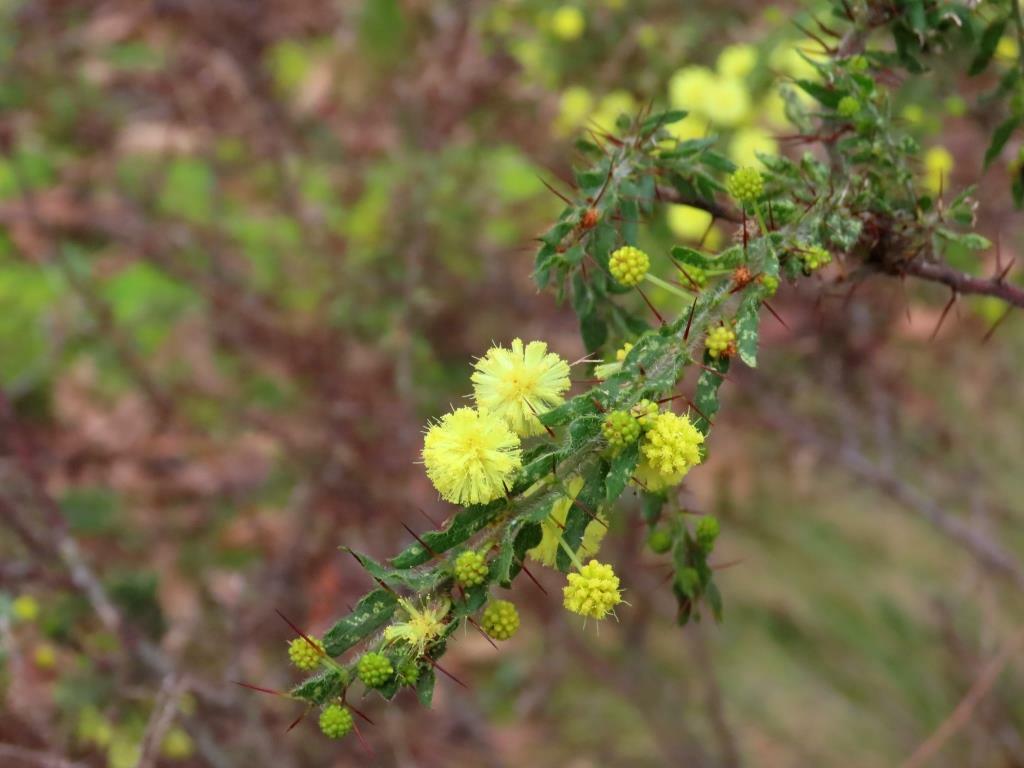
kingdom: Plantae
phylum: Tracheophyta
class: Magnoliopsida
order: Fabales
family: Fabaceae
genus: Acacia
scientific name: Acacia paradoxa
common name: Paradox acacia
